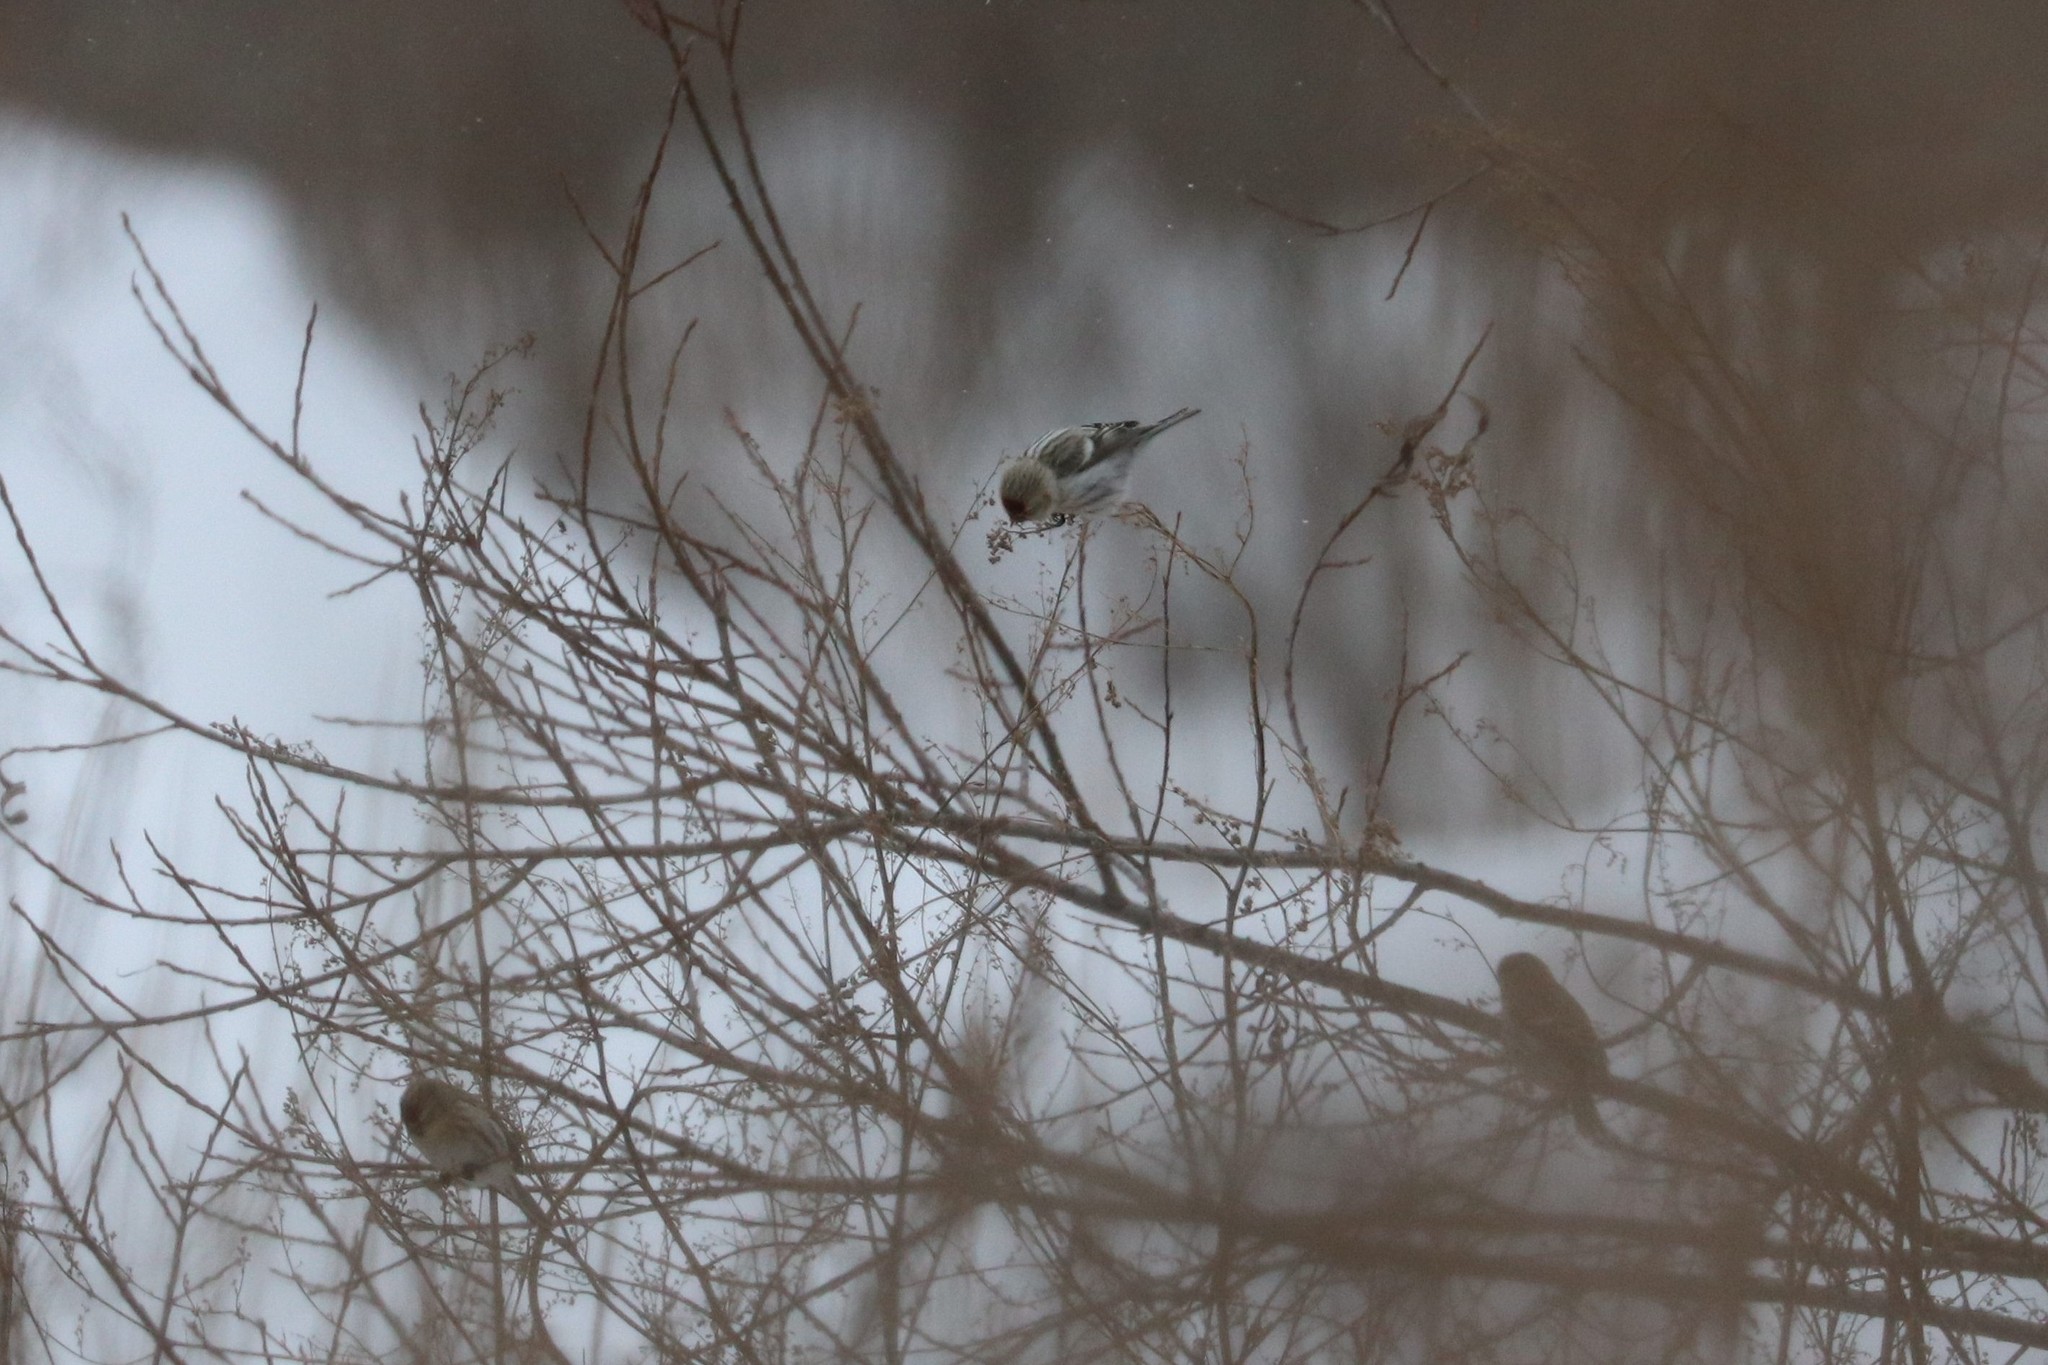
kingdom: Animalia
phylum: Chordata
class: Aves
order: Passeriformes
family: Fringillidae
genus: Acanthis
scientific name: Acanthis flammea
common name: Common redpoll
